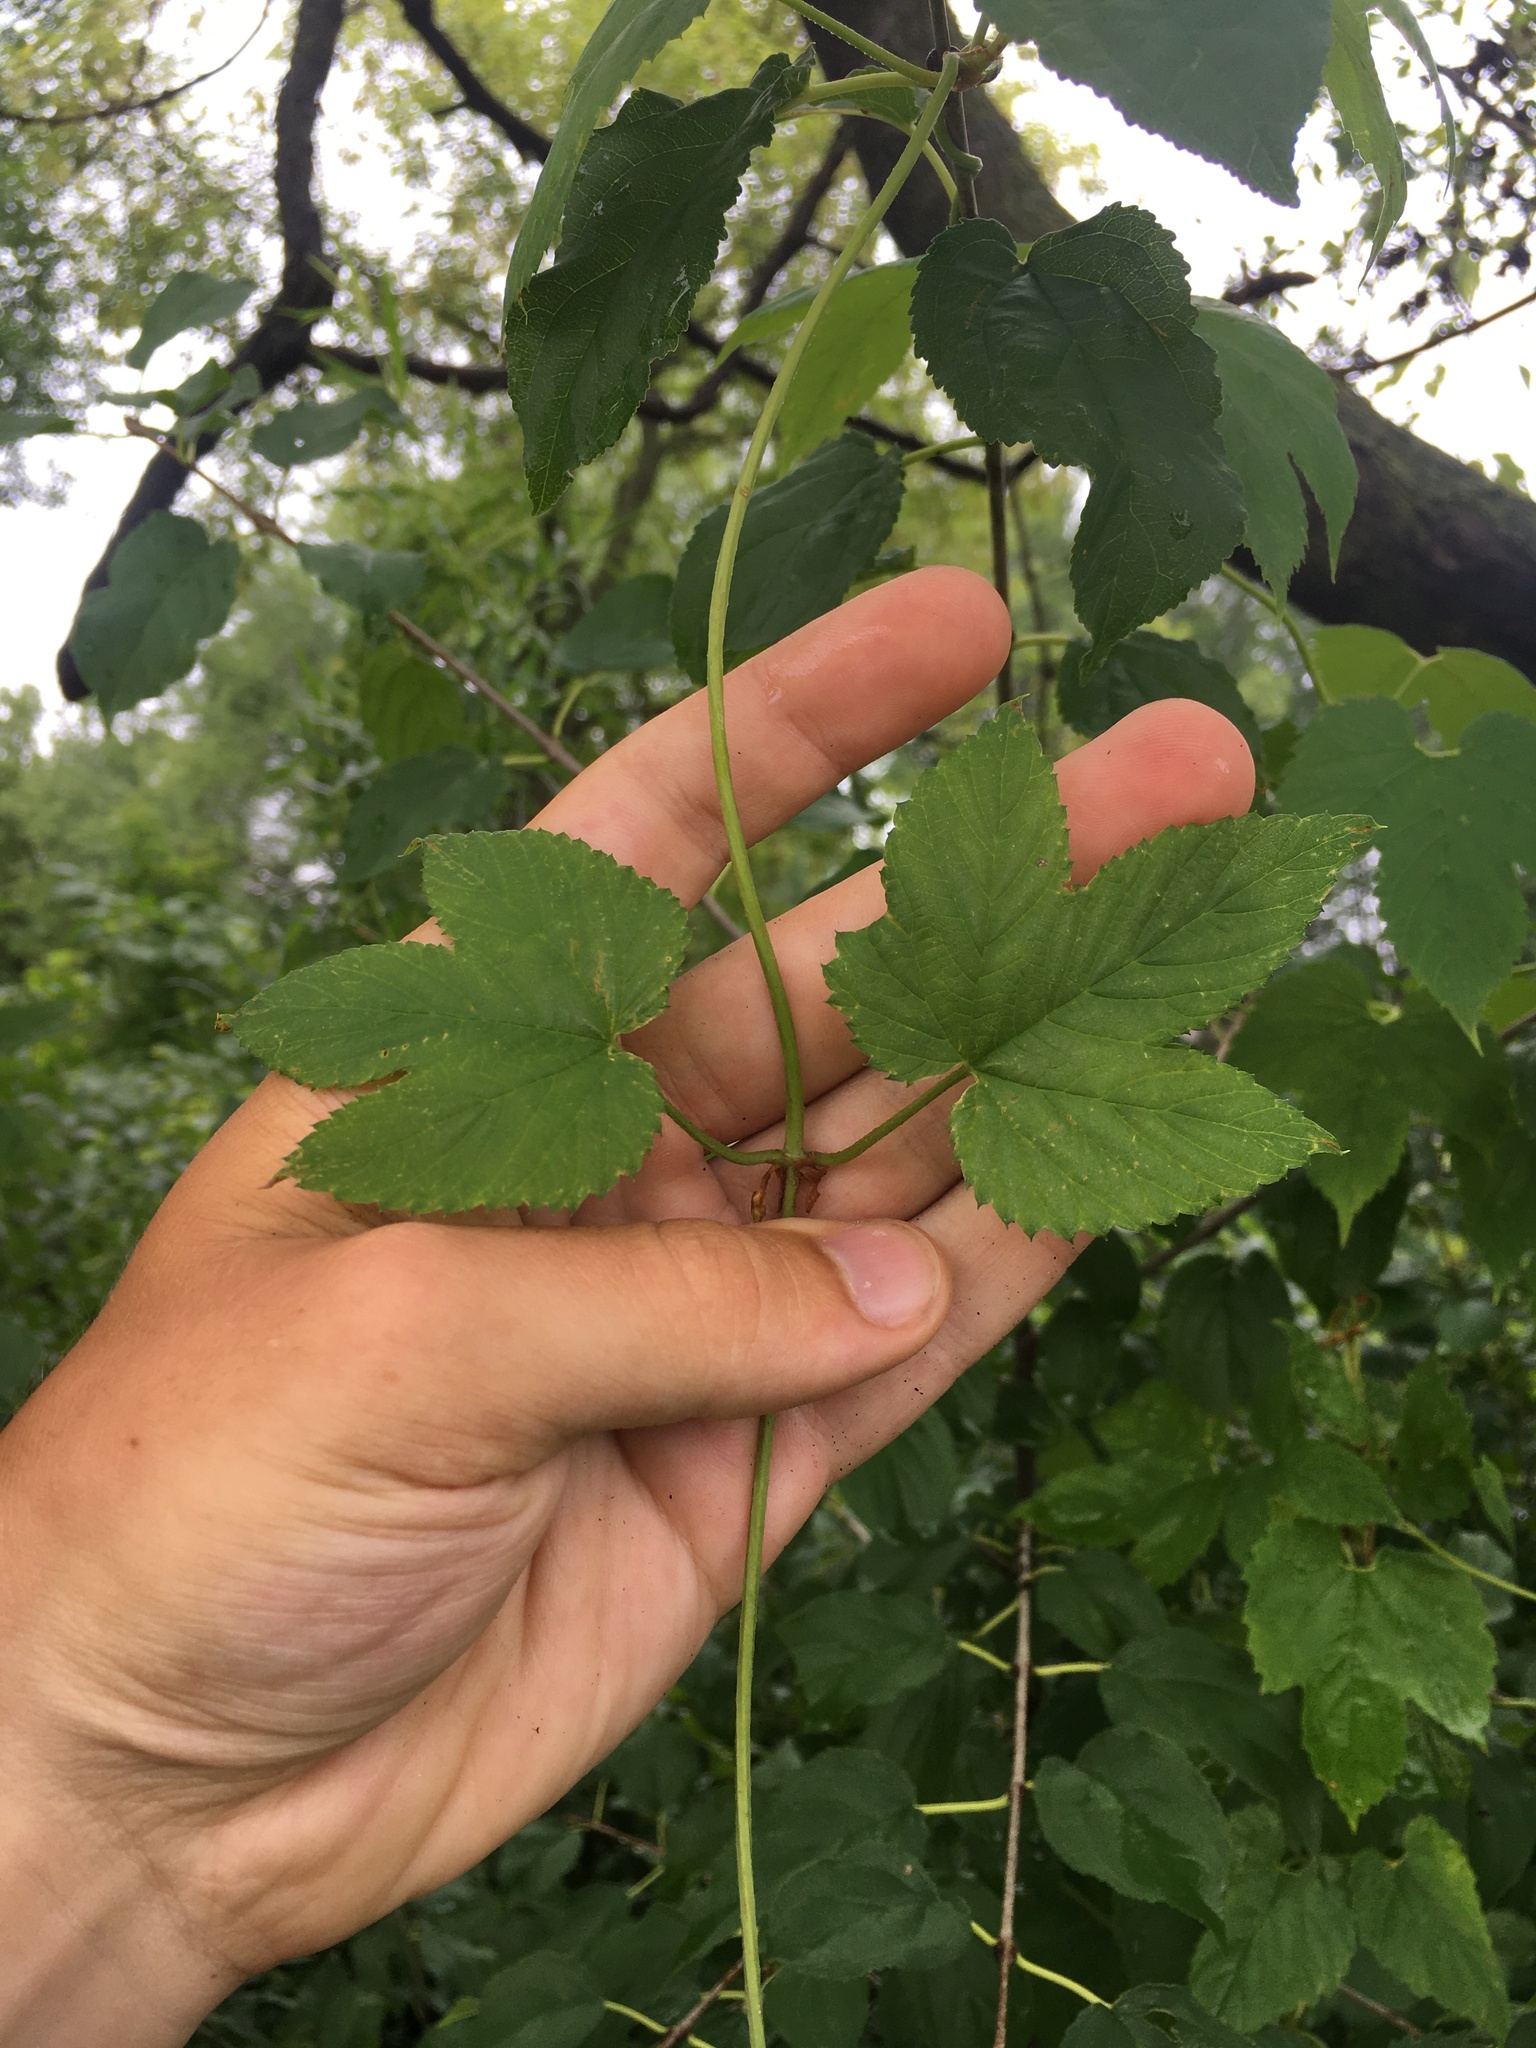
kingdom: Plantae
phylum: Tracheophyta
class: Magnoliopsida
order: Rosales
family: Cannabaceae
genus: Humulus
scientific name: Humulus lupulus
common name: Hop
